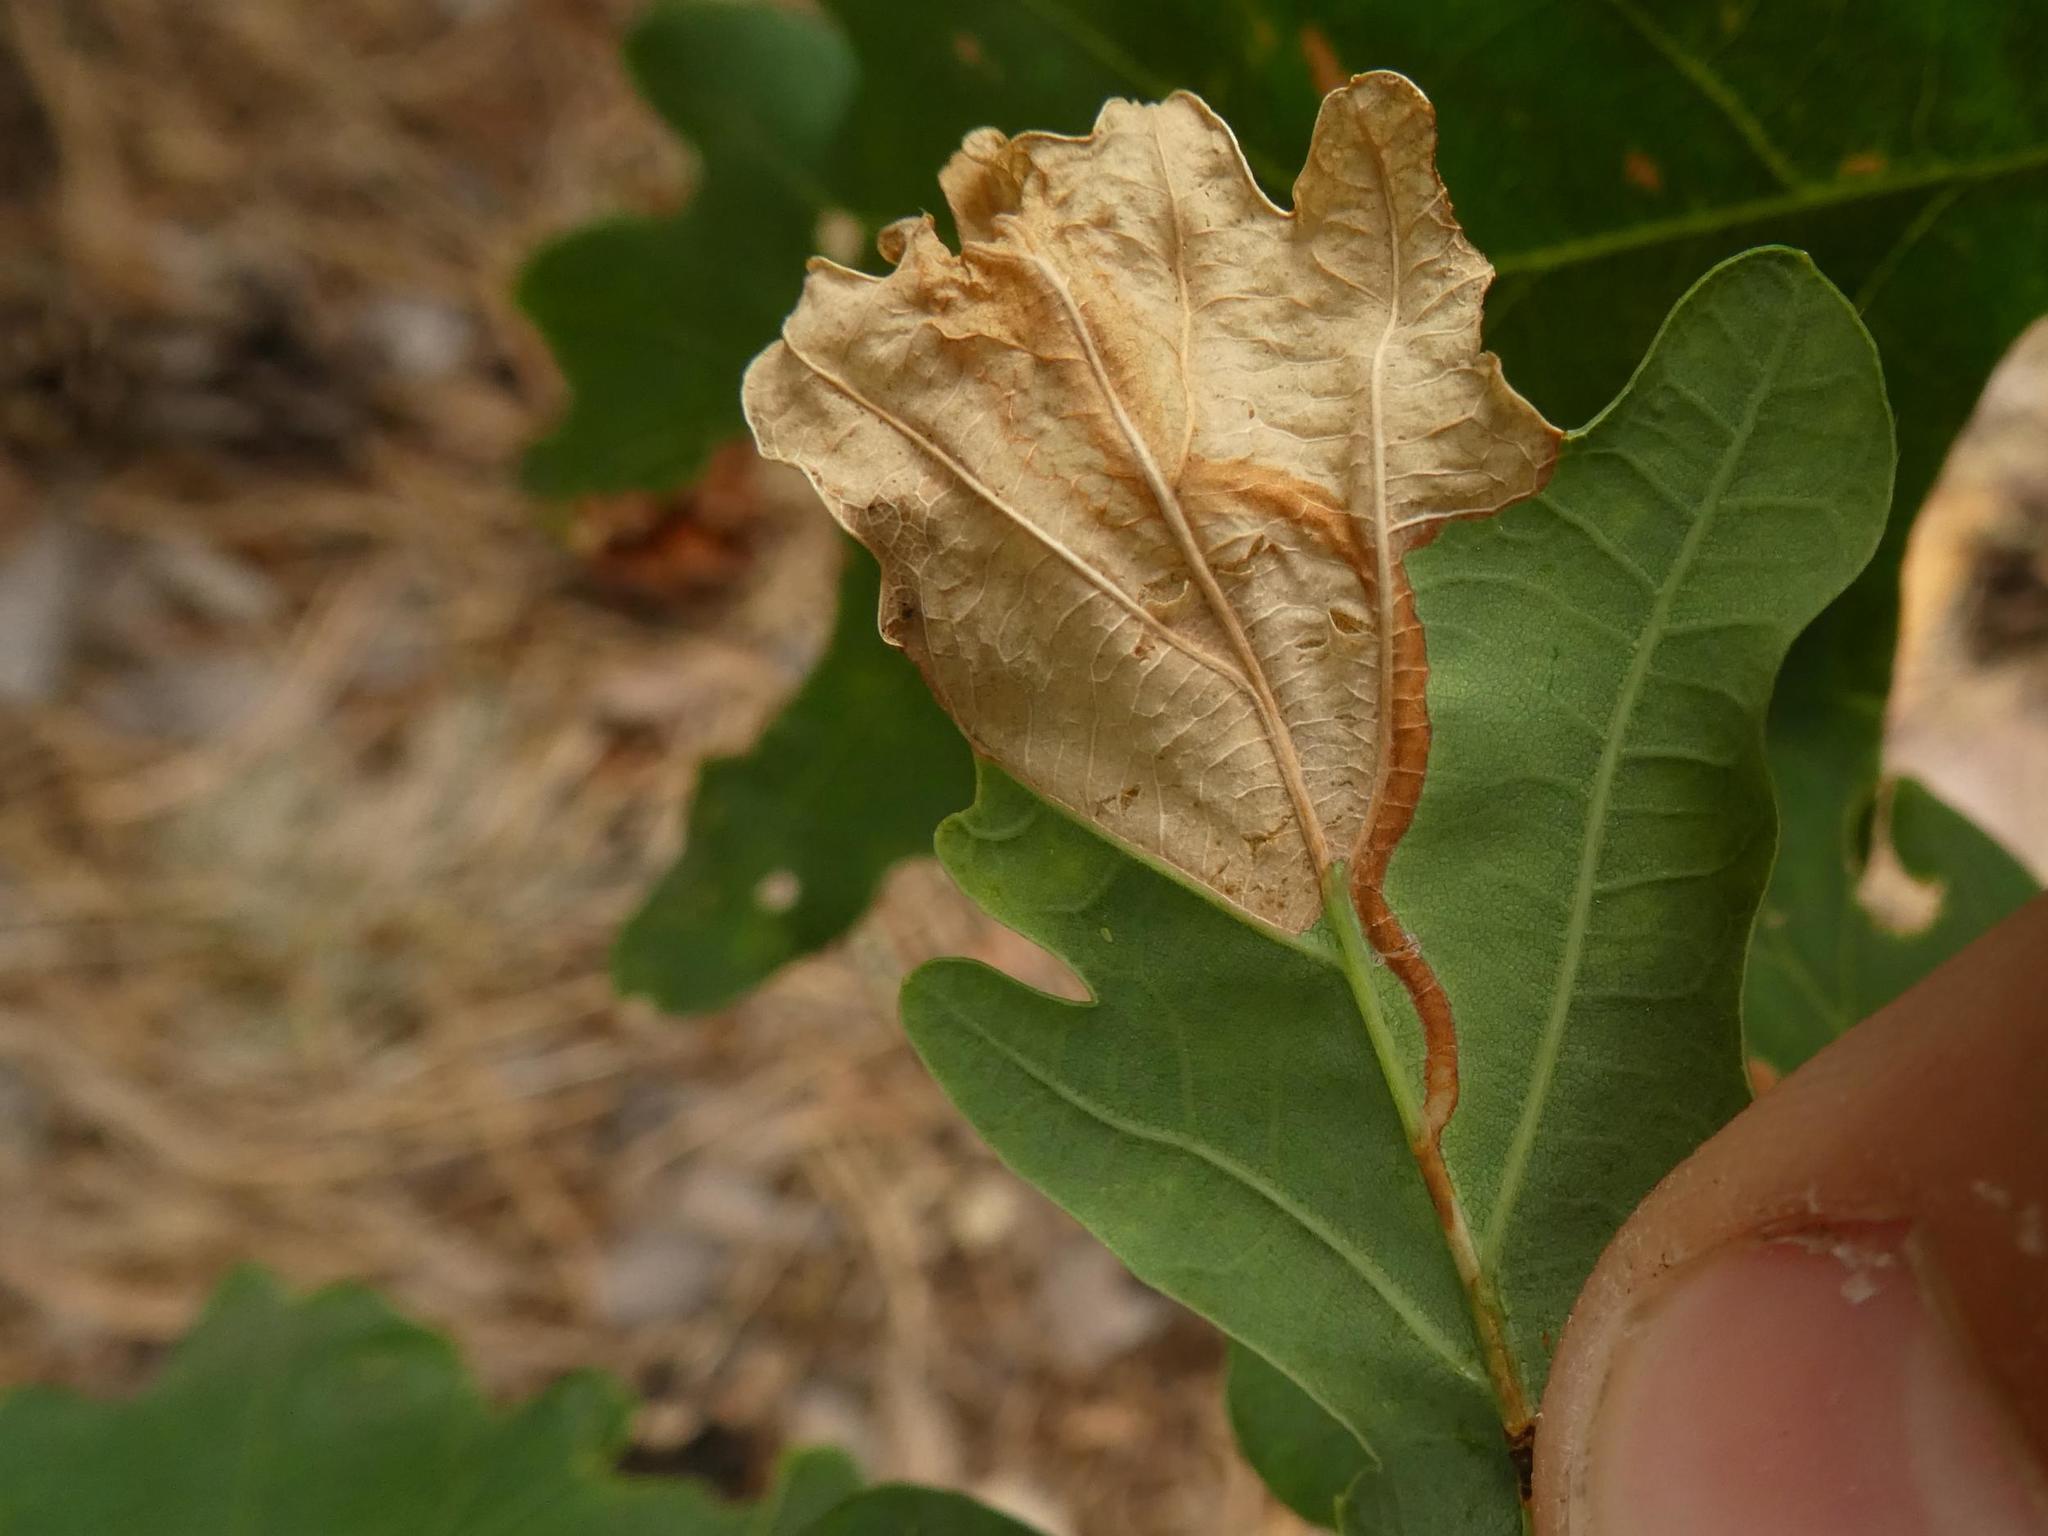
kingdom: Animalia
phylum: Arthropoda
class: Insecta
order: Coleoptera
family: Curculionidae
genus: Orchestes
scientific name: Orchestes quercus
